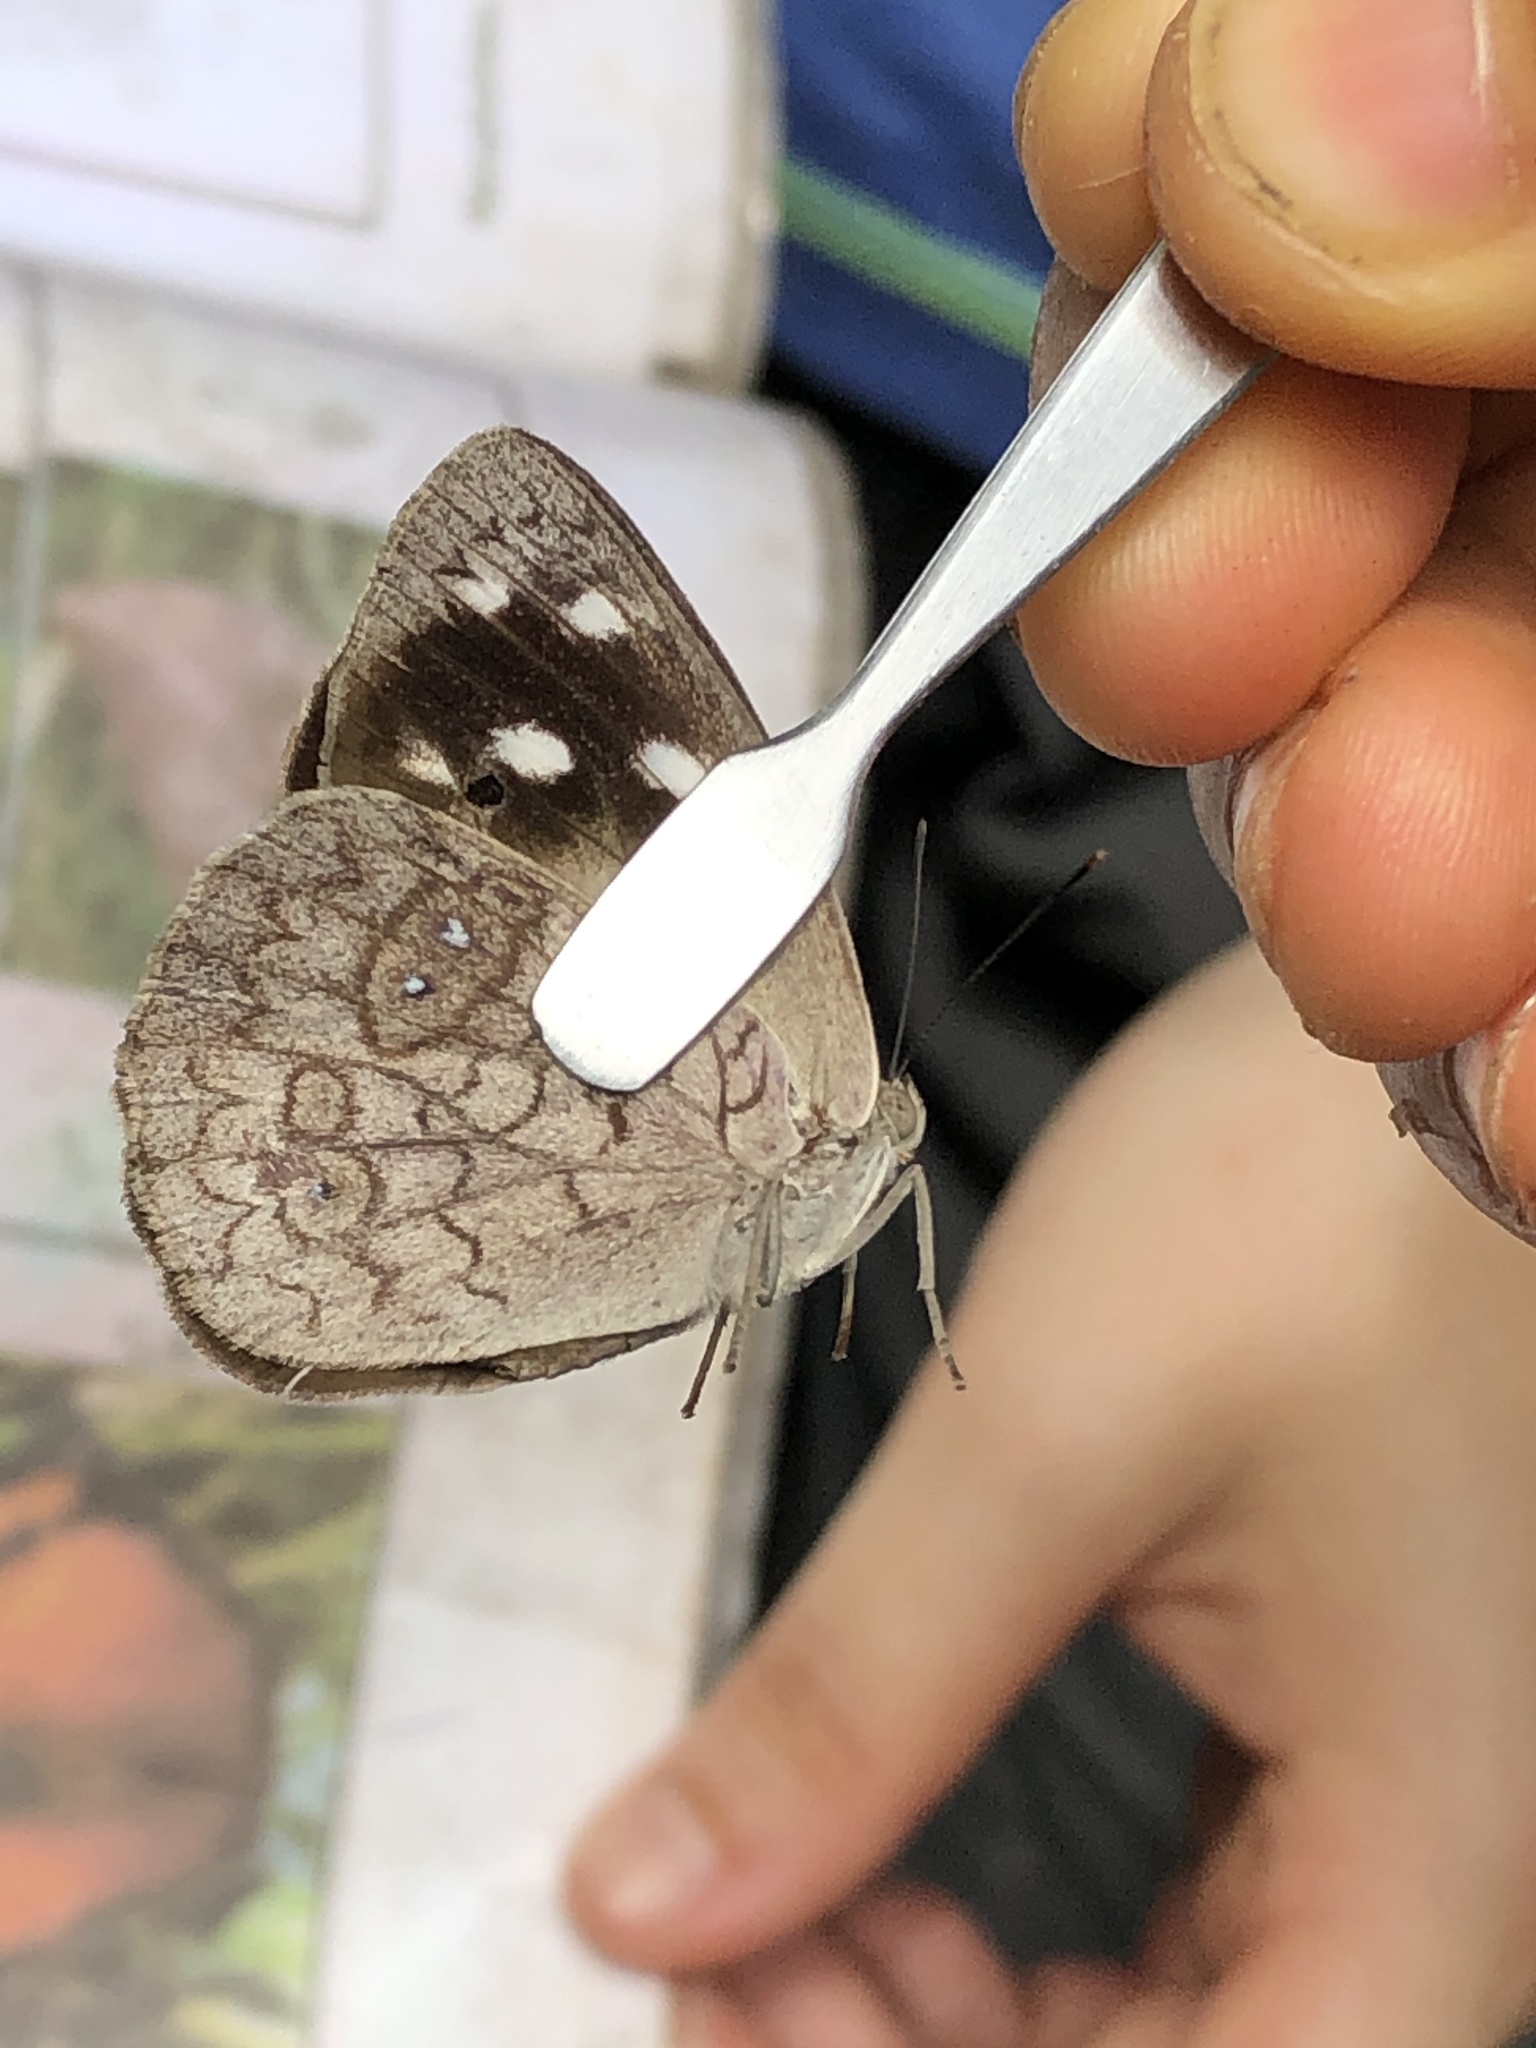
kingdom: Animalia
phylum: Arthropoda
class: Insecta
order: Lepidoptera
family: Nymphalidae
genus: Eunica
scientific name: Eunica clythia
